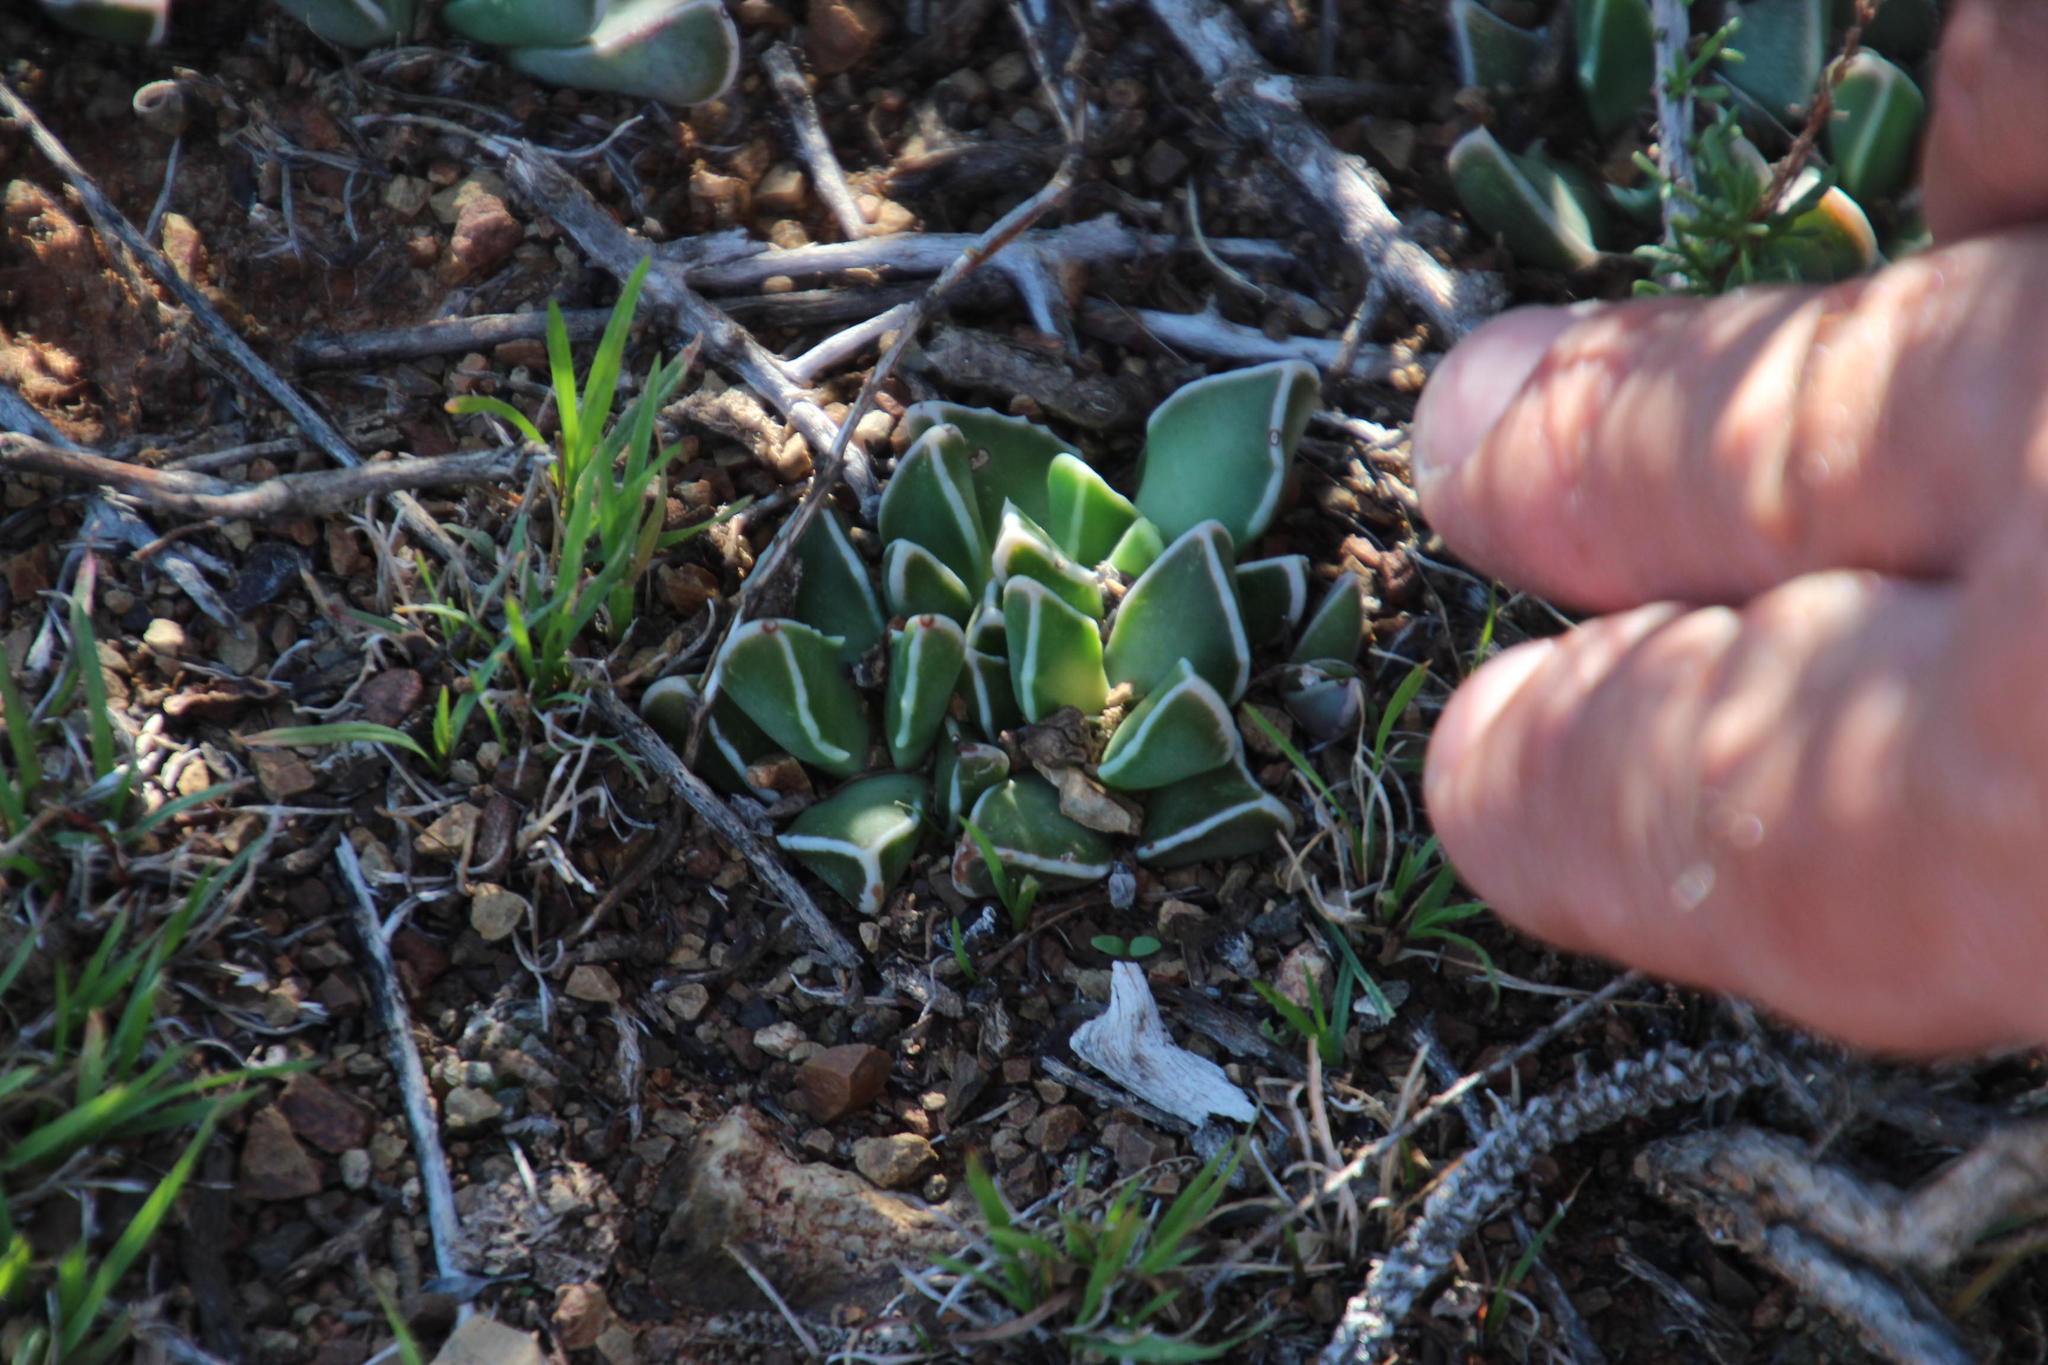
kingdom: Plantae
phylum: Tracheophyta
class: Magnoliopsida
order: Caryophyllales
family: Aizoaceae
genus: Faucaria
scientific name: Faucaria bosscheana
